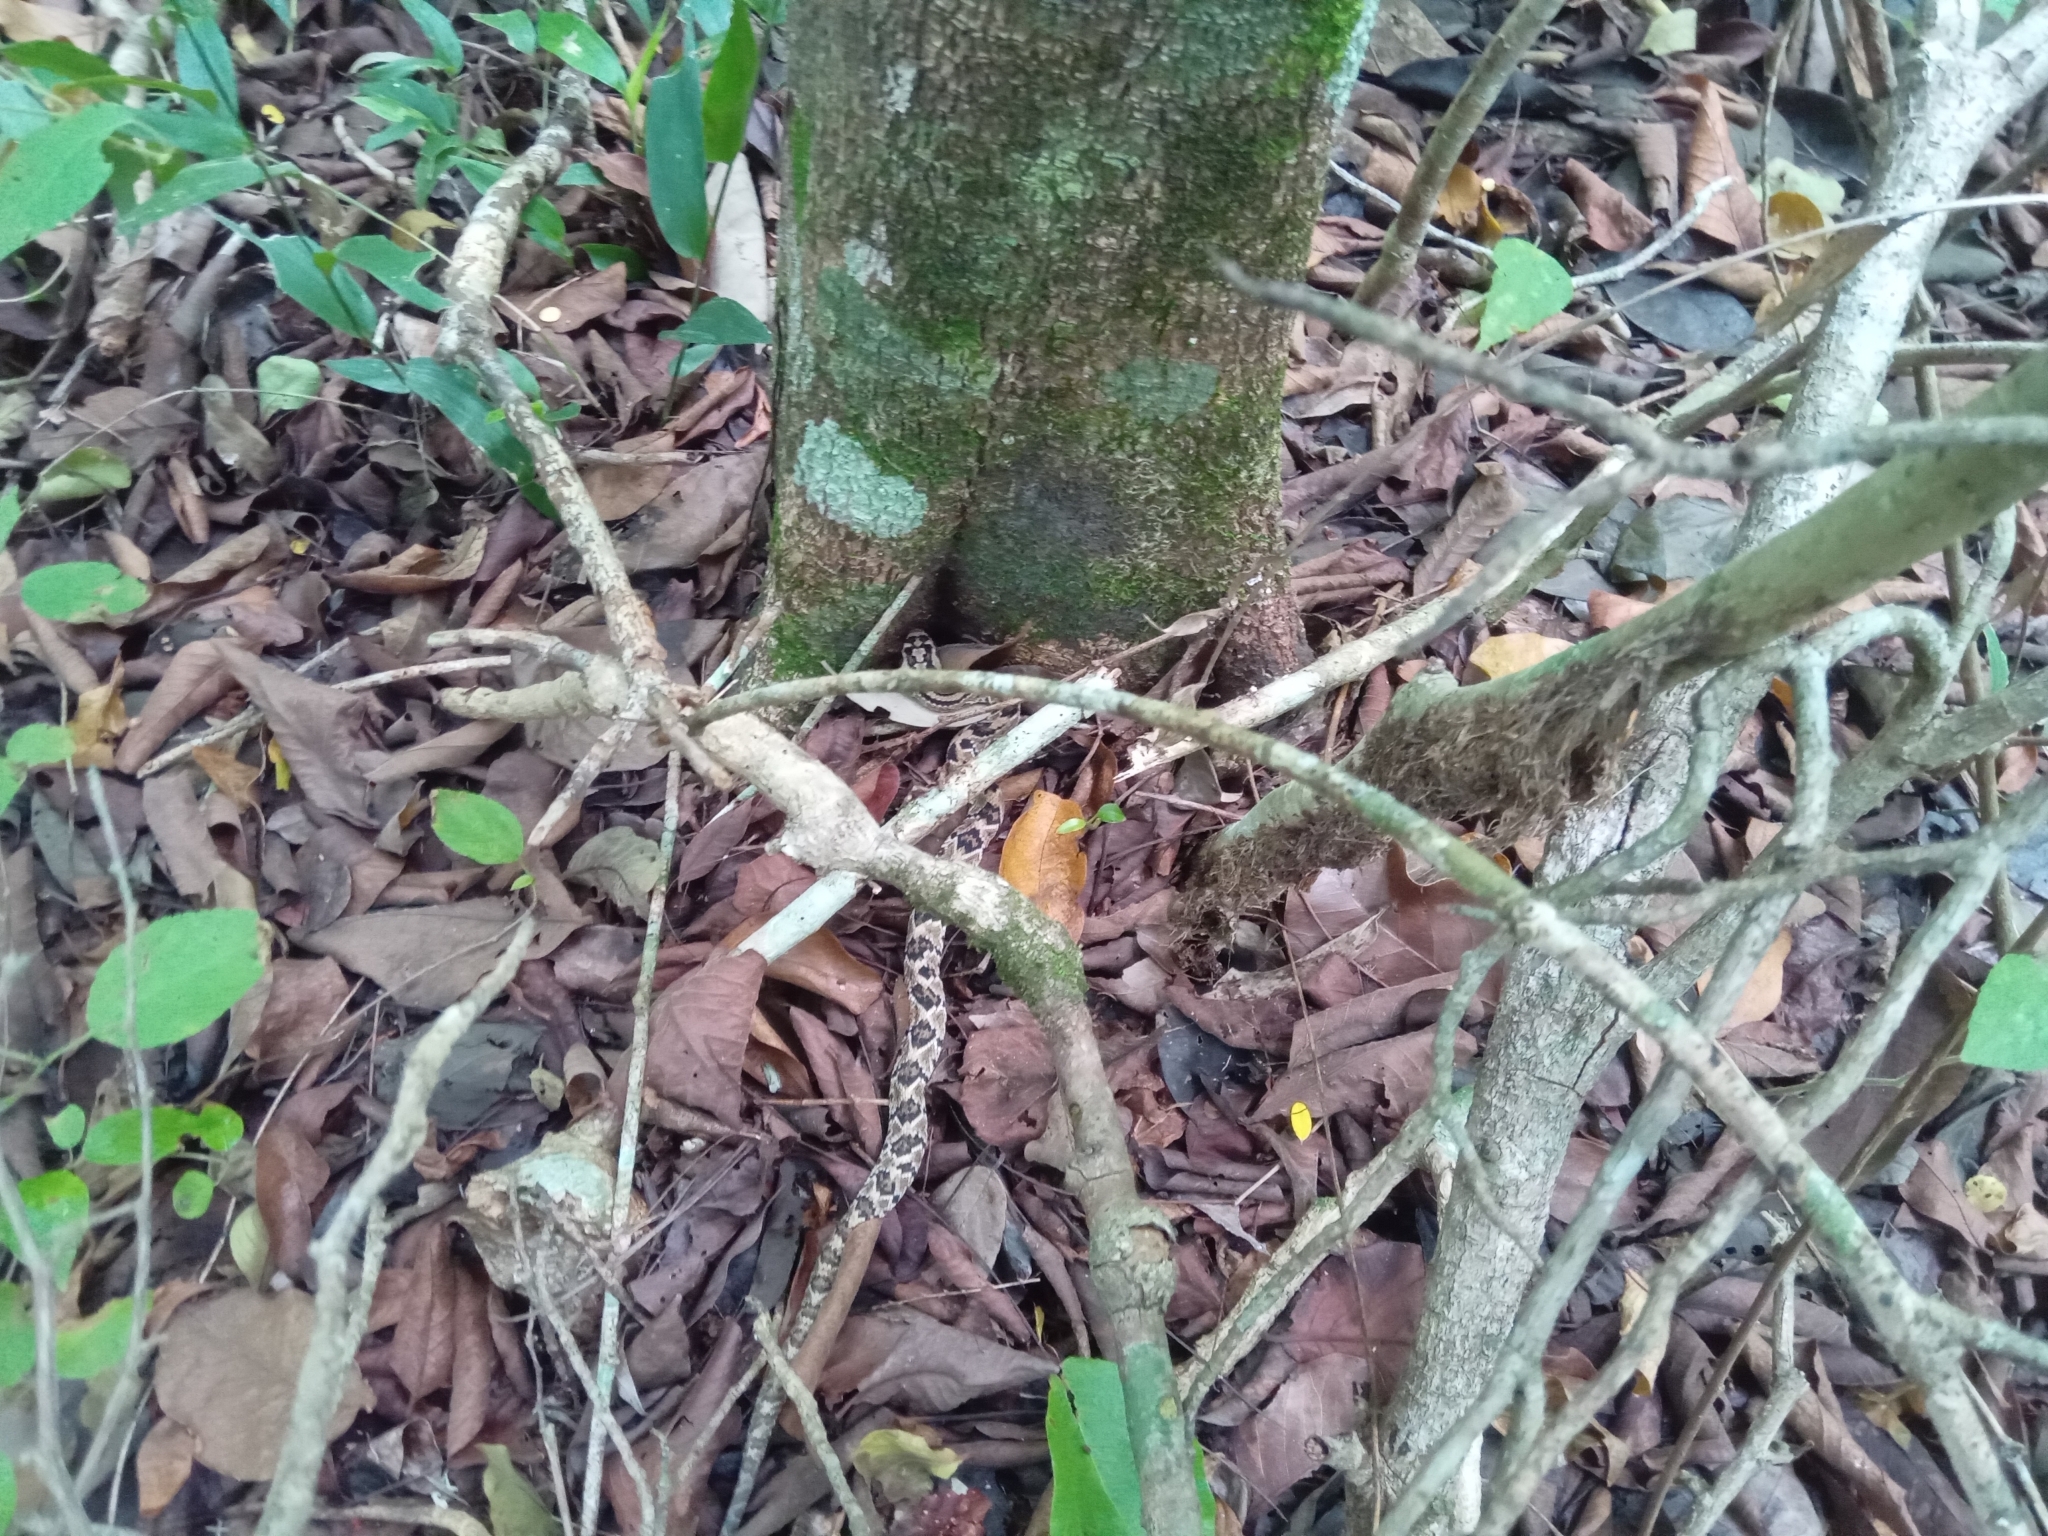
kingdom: Animalia
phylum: Chordata
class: Squamata
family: Viperidae
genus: Crotalus
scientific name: Crotalus tzabcan
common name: Yucatan neotropical rattlesnake
